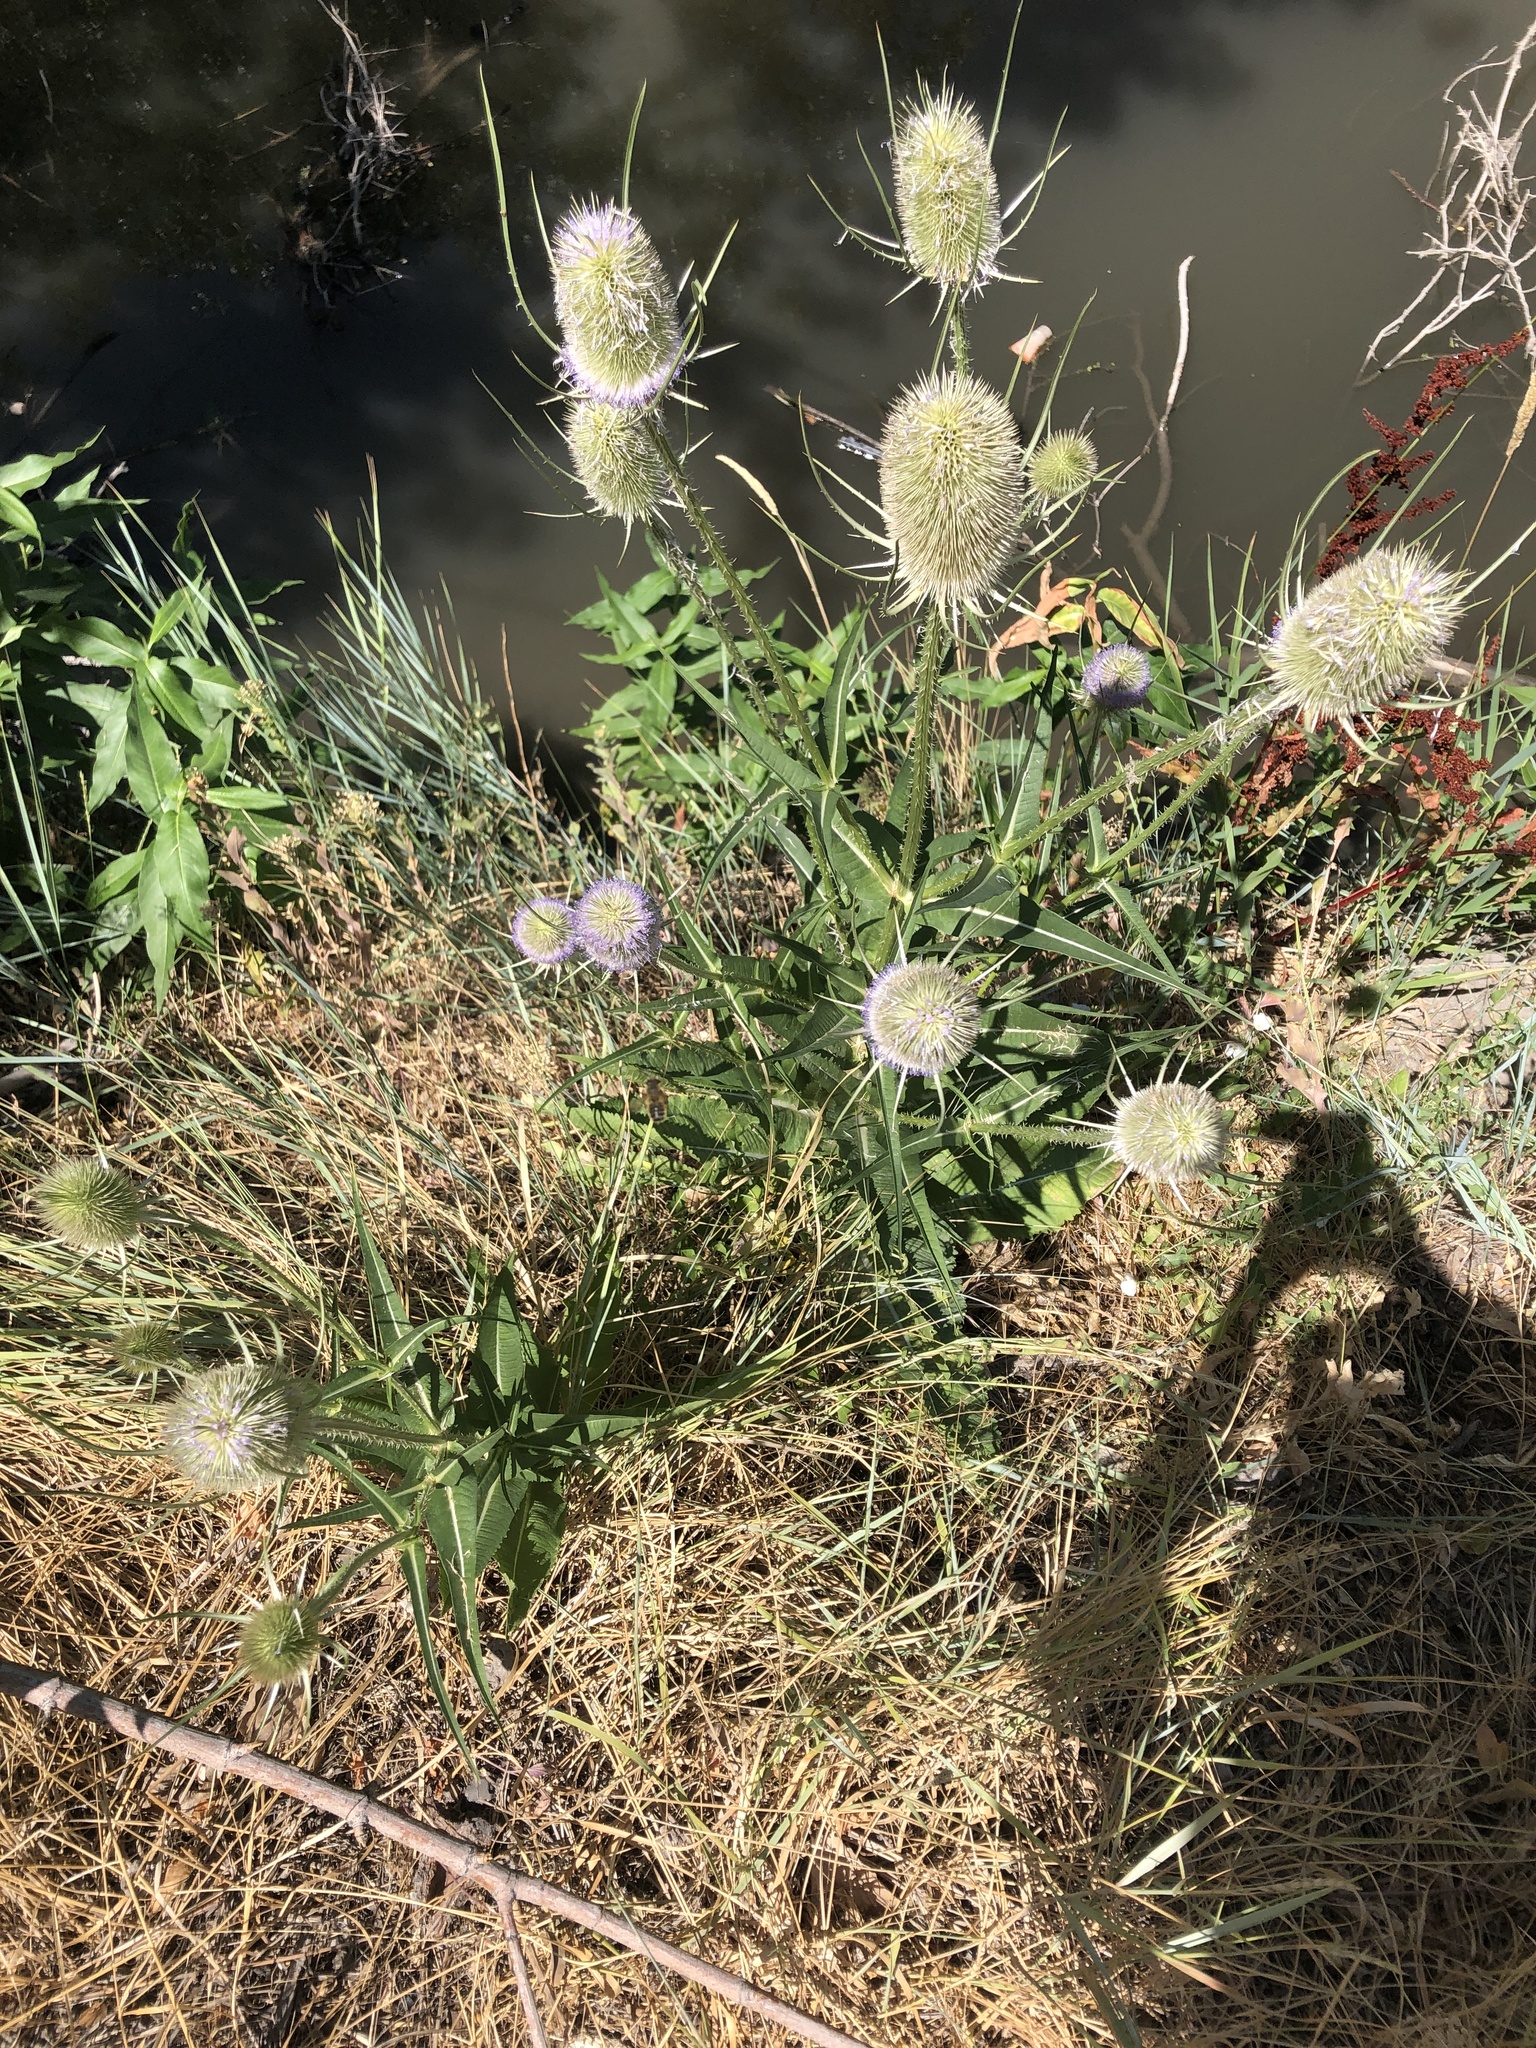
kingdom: Plantae
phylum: Tracheophyta
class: Magnoliopsida
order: Dipsacales
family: Caprifoliaceae
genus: Dipsacus
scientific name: Dipsacus fullonum
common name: Teasel
